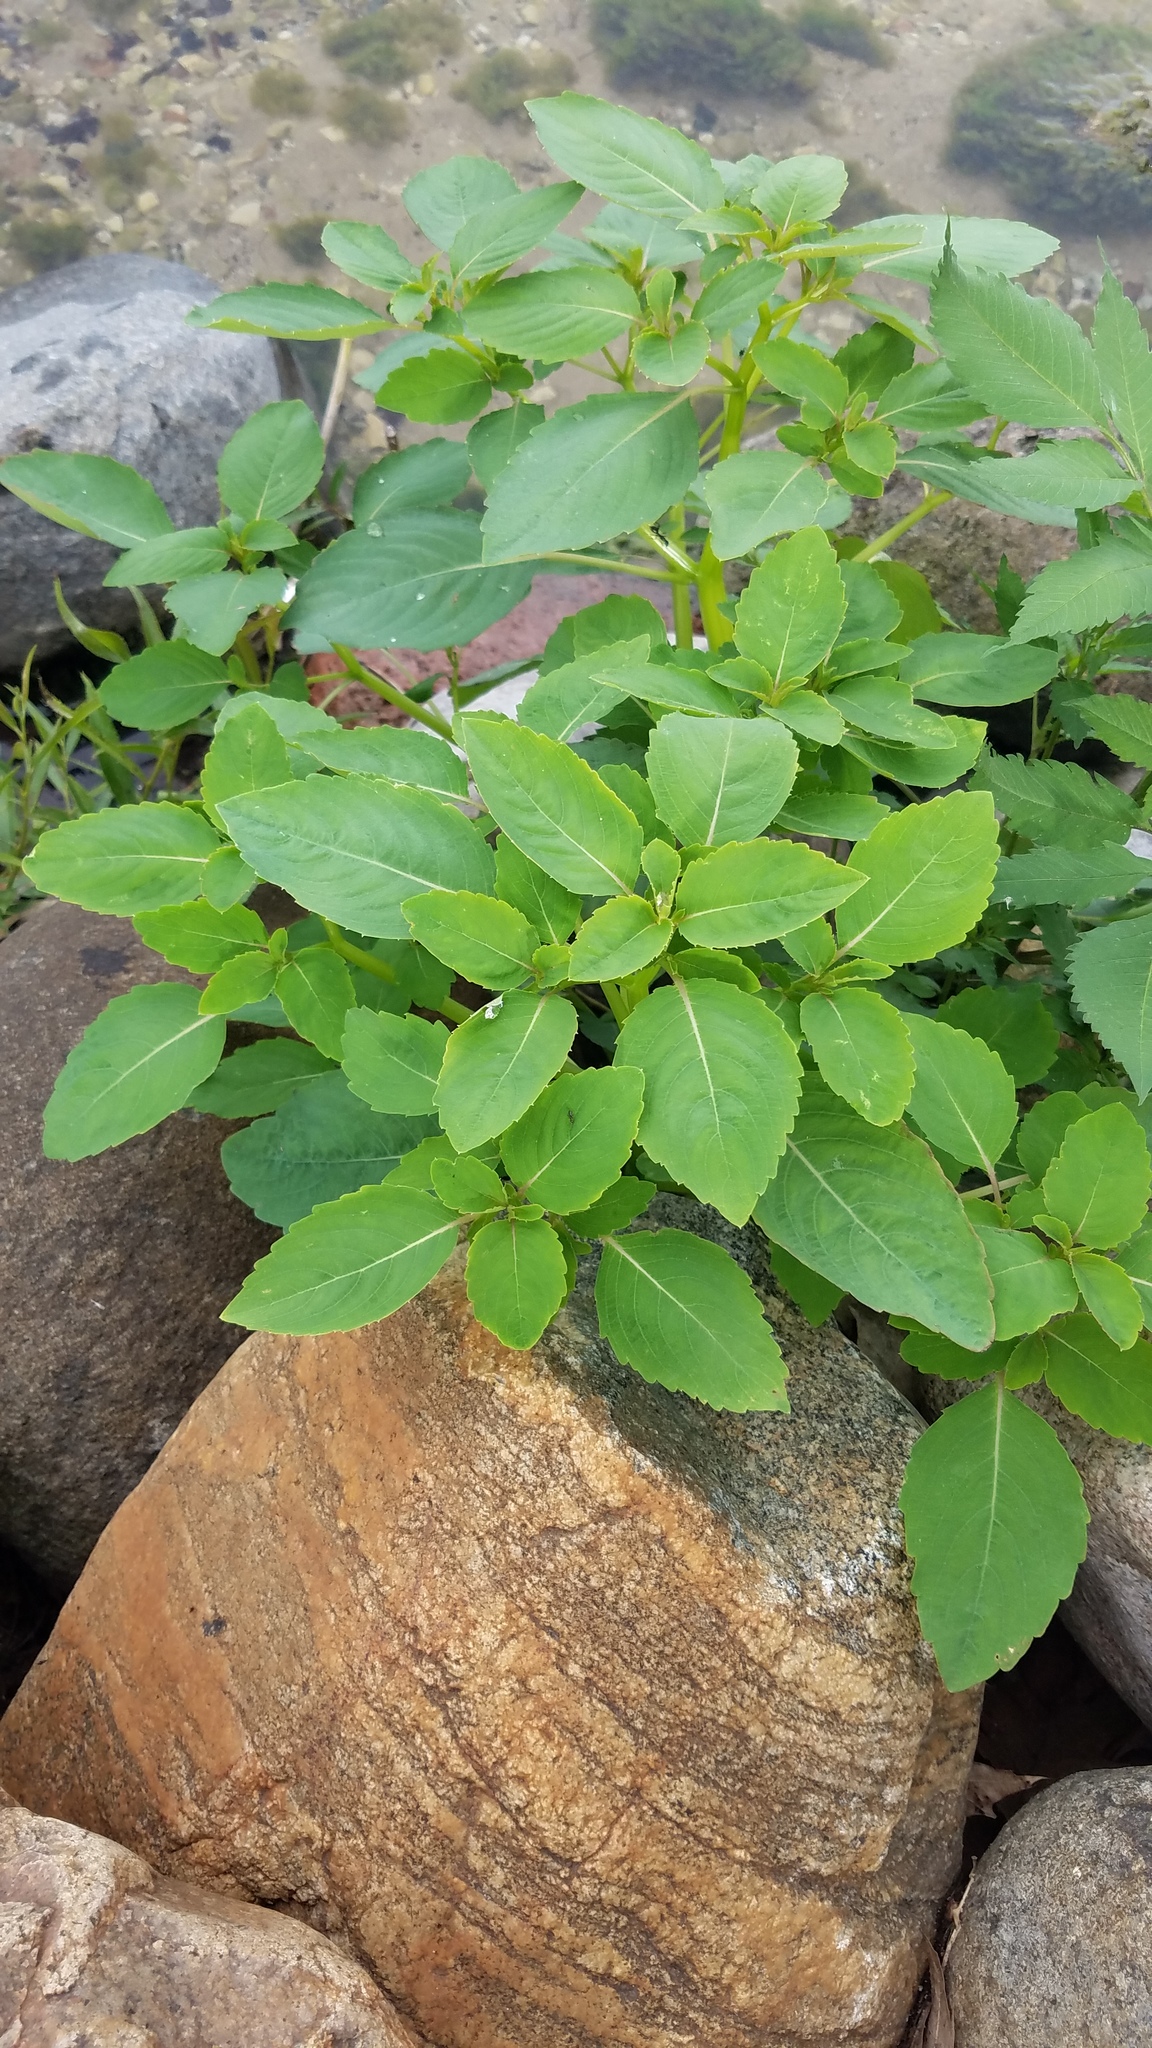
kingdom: Plantae
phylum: Tracheophyta
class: Magnoliopsida
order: Ericales
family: Balsaminaceae
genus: Impatiens
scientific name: Impatiens pallida
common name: Pale snapweed
